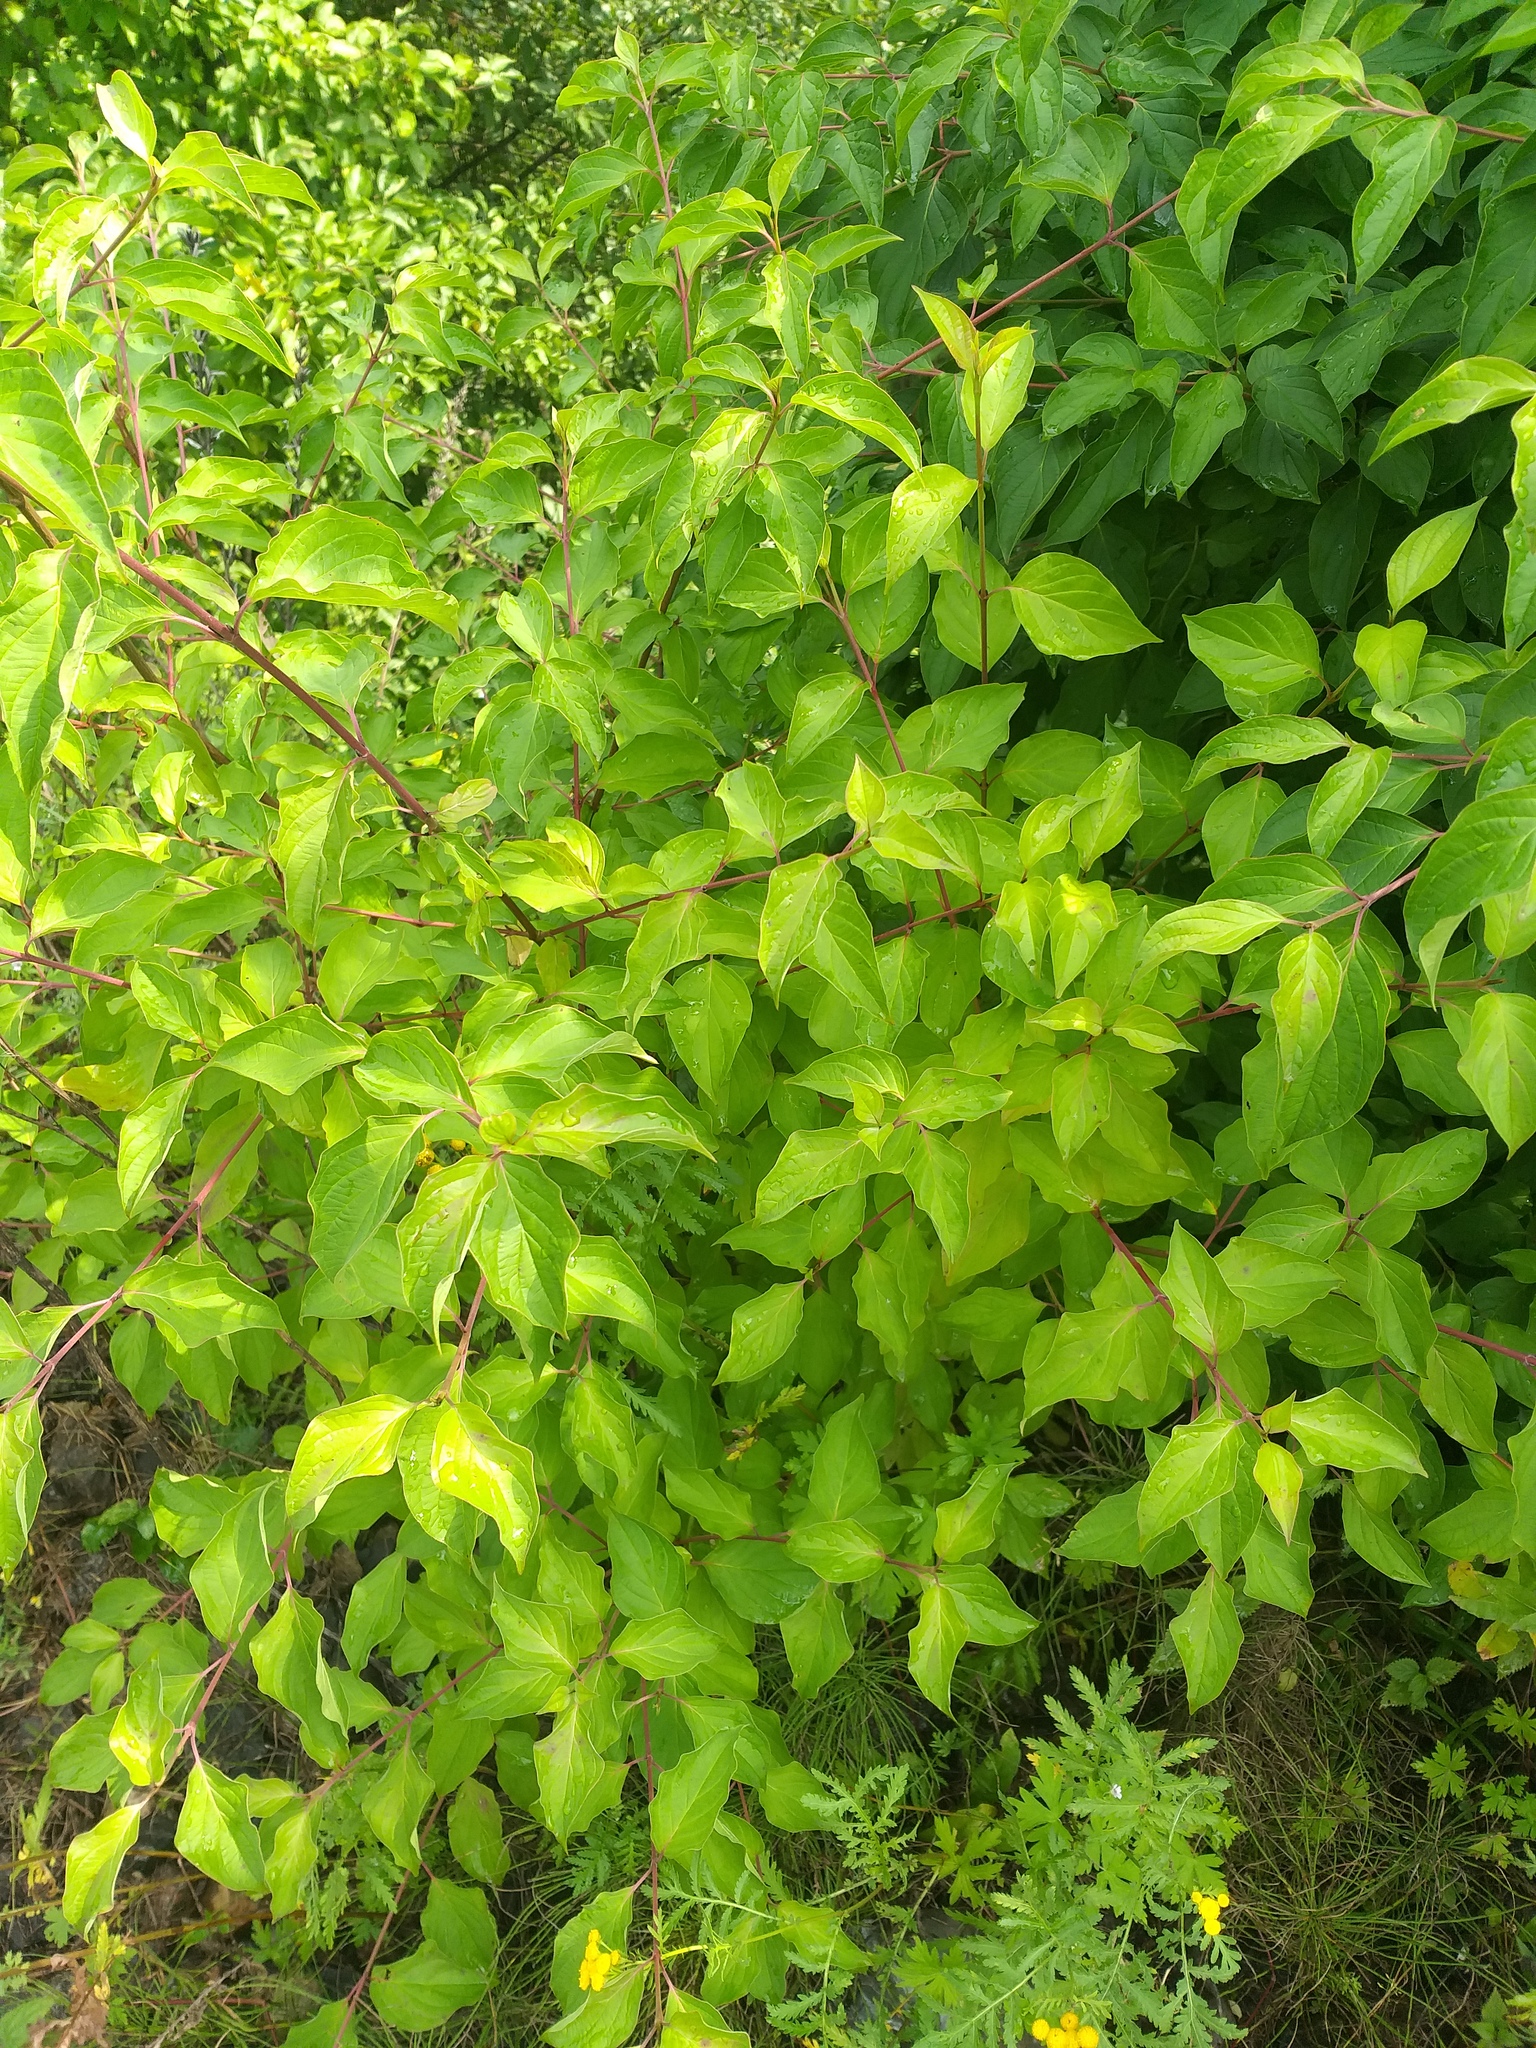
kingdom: Plantae
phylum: Tracheophyta
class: Magnoliopsida
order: Cornales
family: Cornaceae
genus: Cornus
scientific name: Cornus sanguinea
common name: Dogwood
